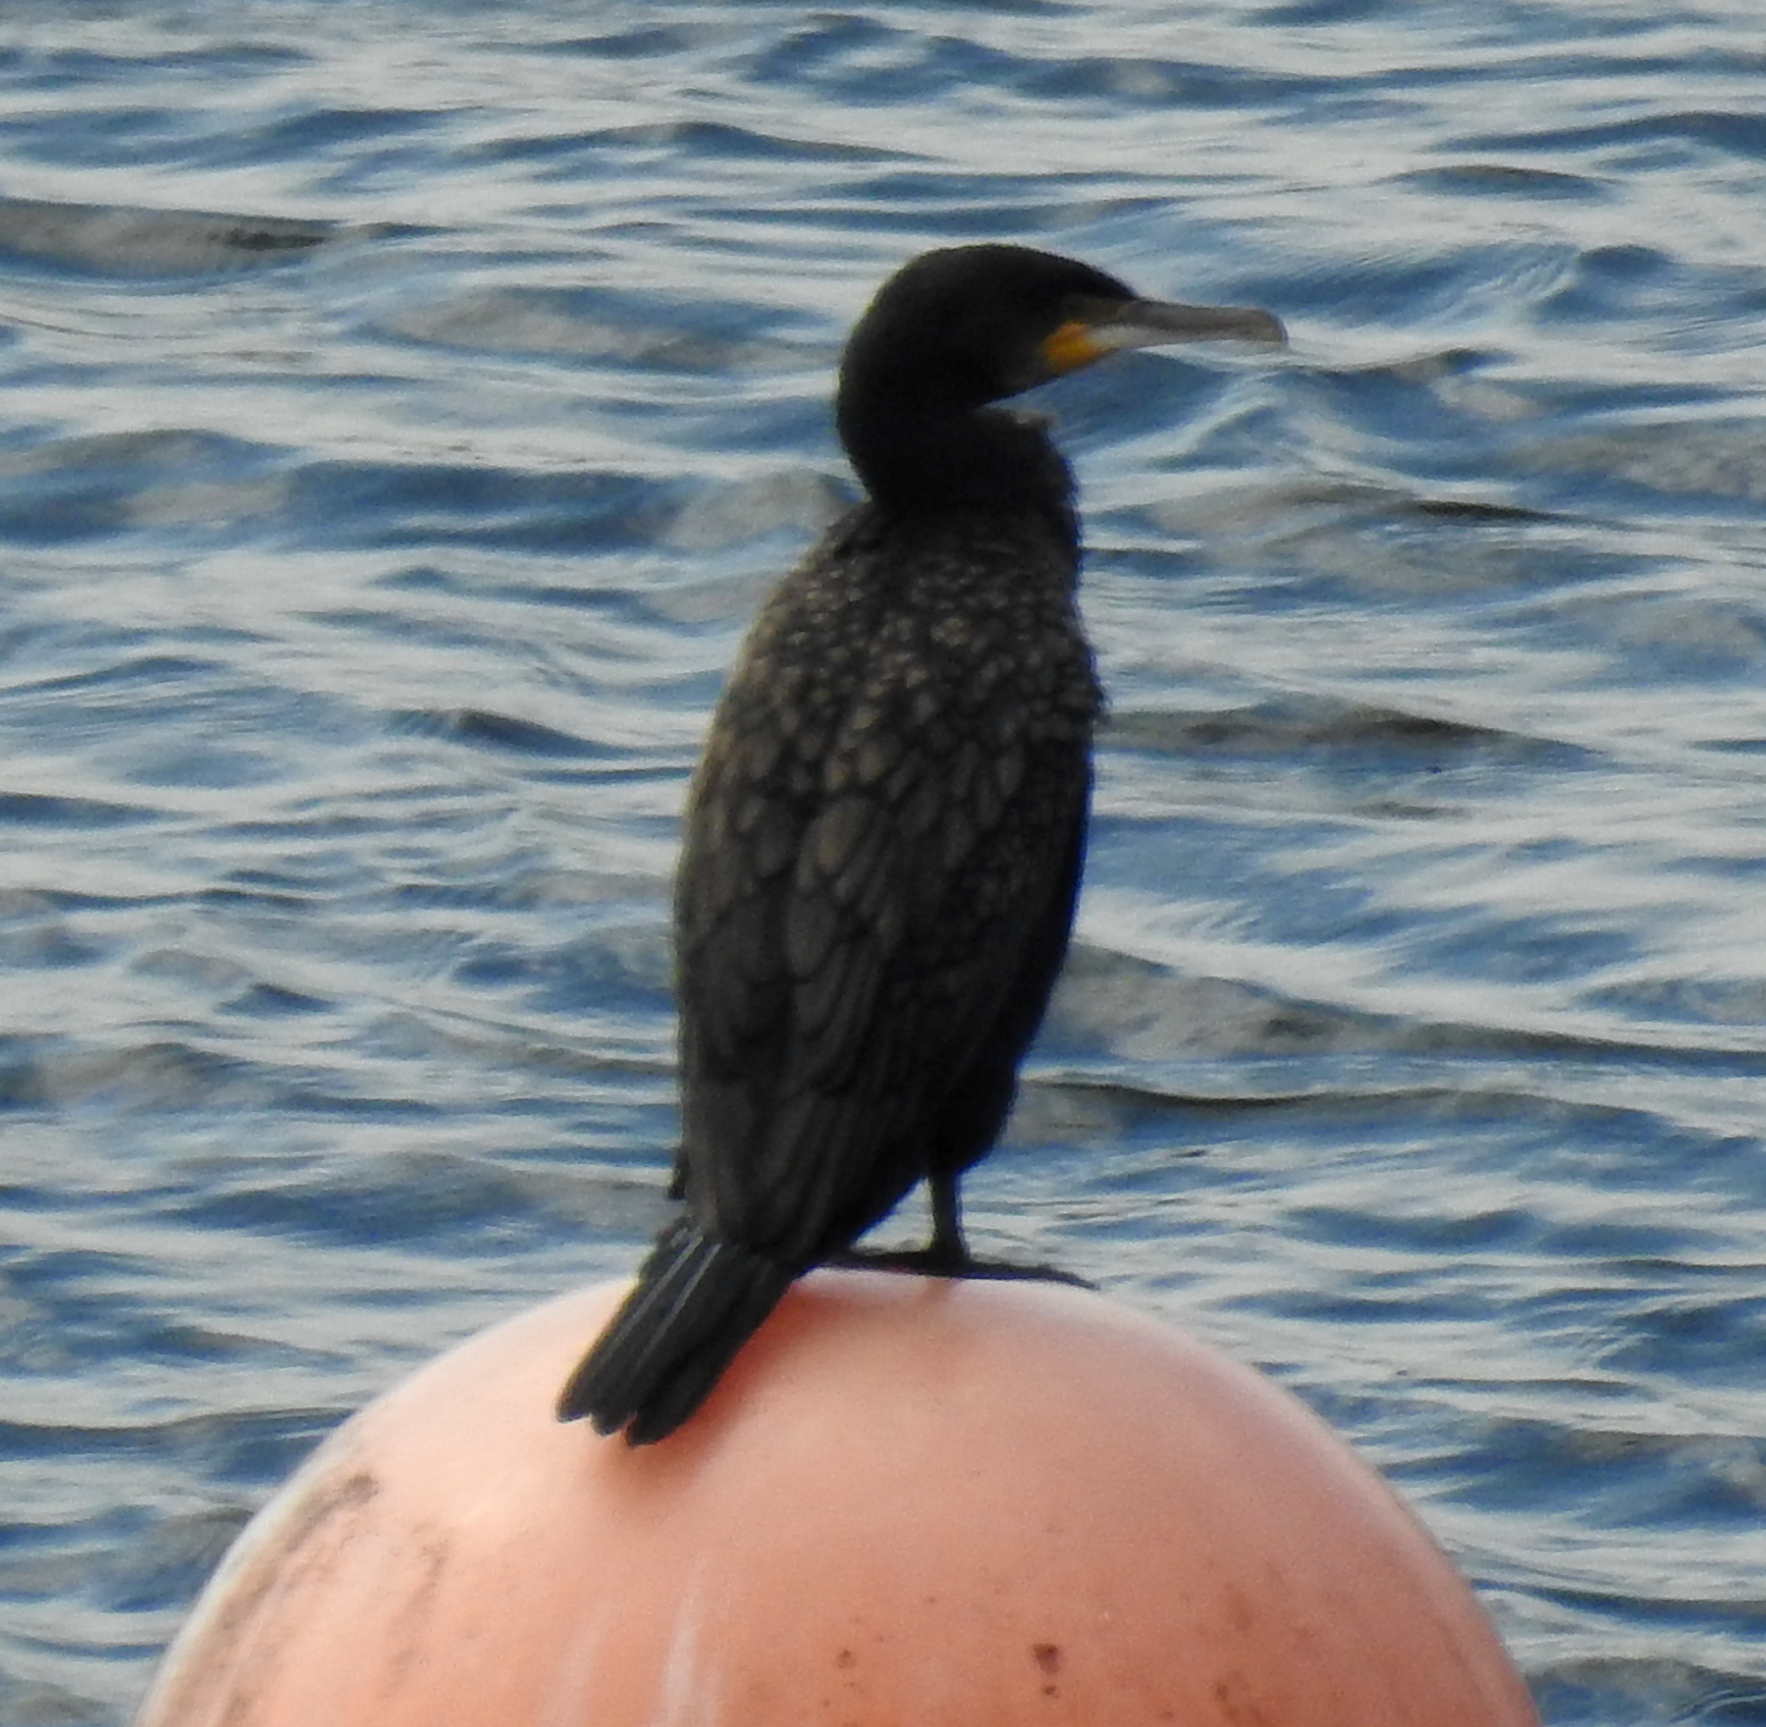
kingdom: Animalia
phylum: Chordata
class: Aves
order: Suliformes
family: Phalacrocoracidae
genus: Phalacrocorax
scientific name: Phalacrocorax carbo
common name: Great cormorant
